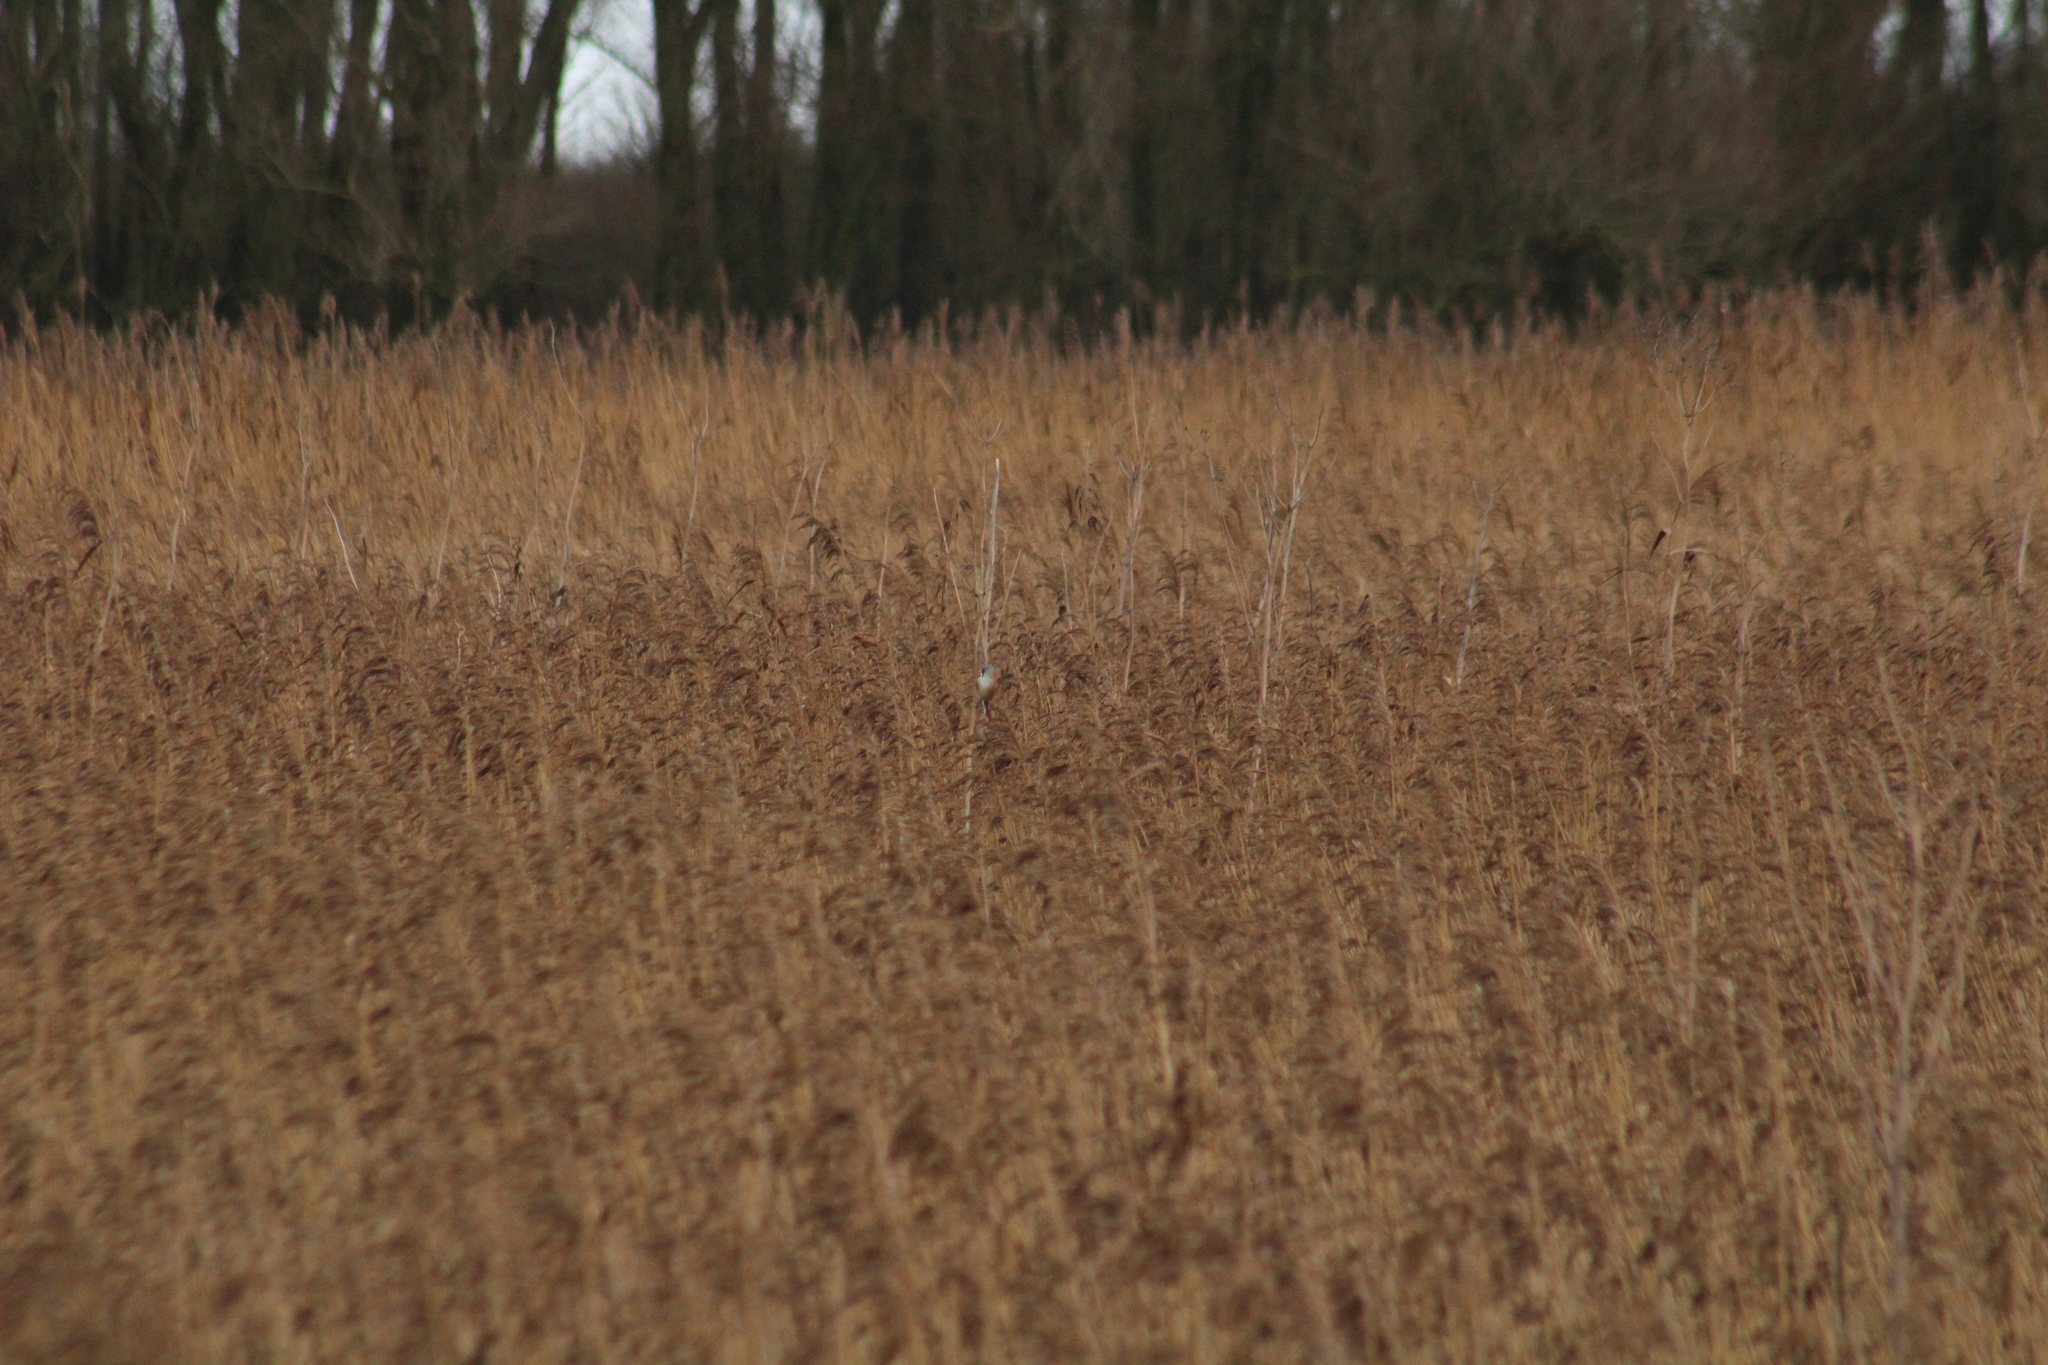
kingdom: Animalia
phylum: Chordata
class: Aves
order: Passeriformes
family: Panuridae
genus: Panurus
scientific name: Panurus biarmicus
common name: Bearded reedling
